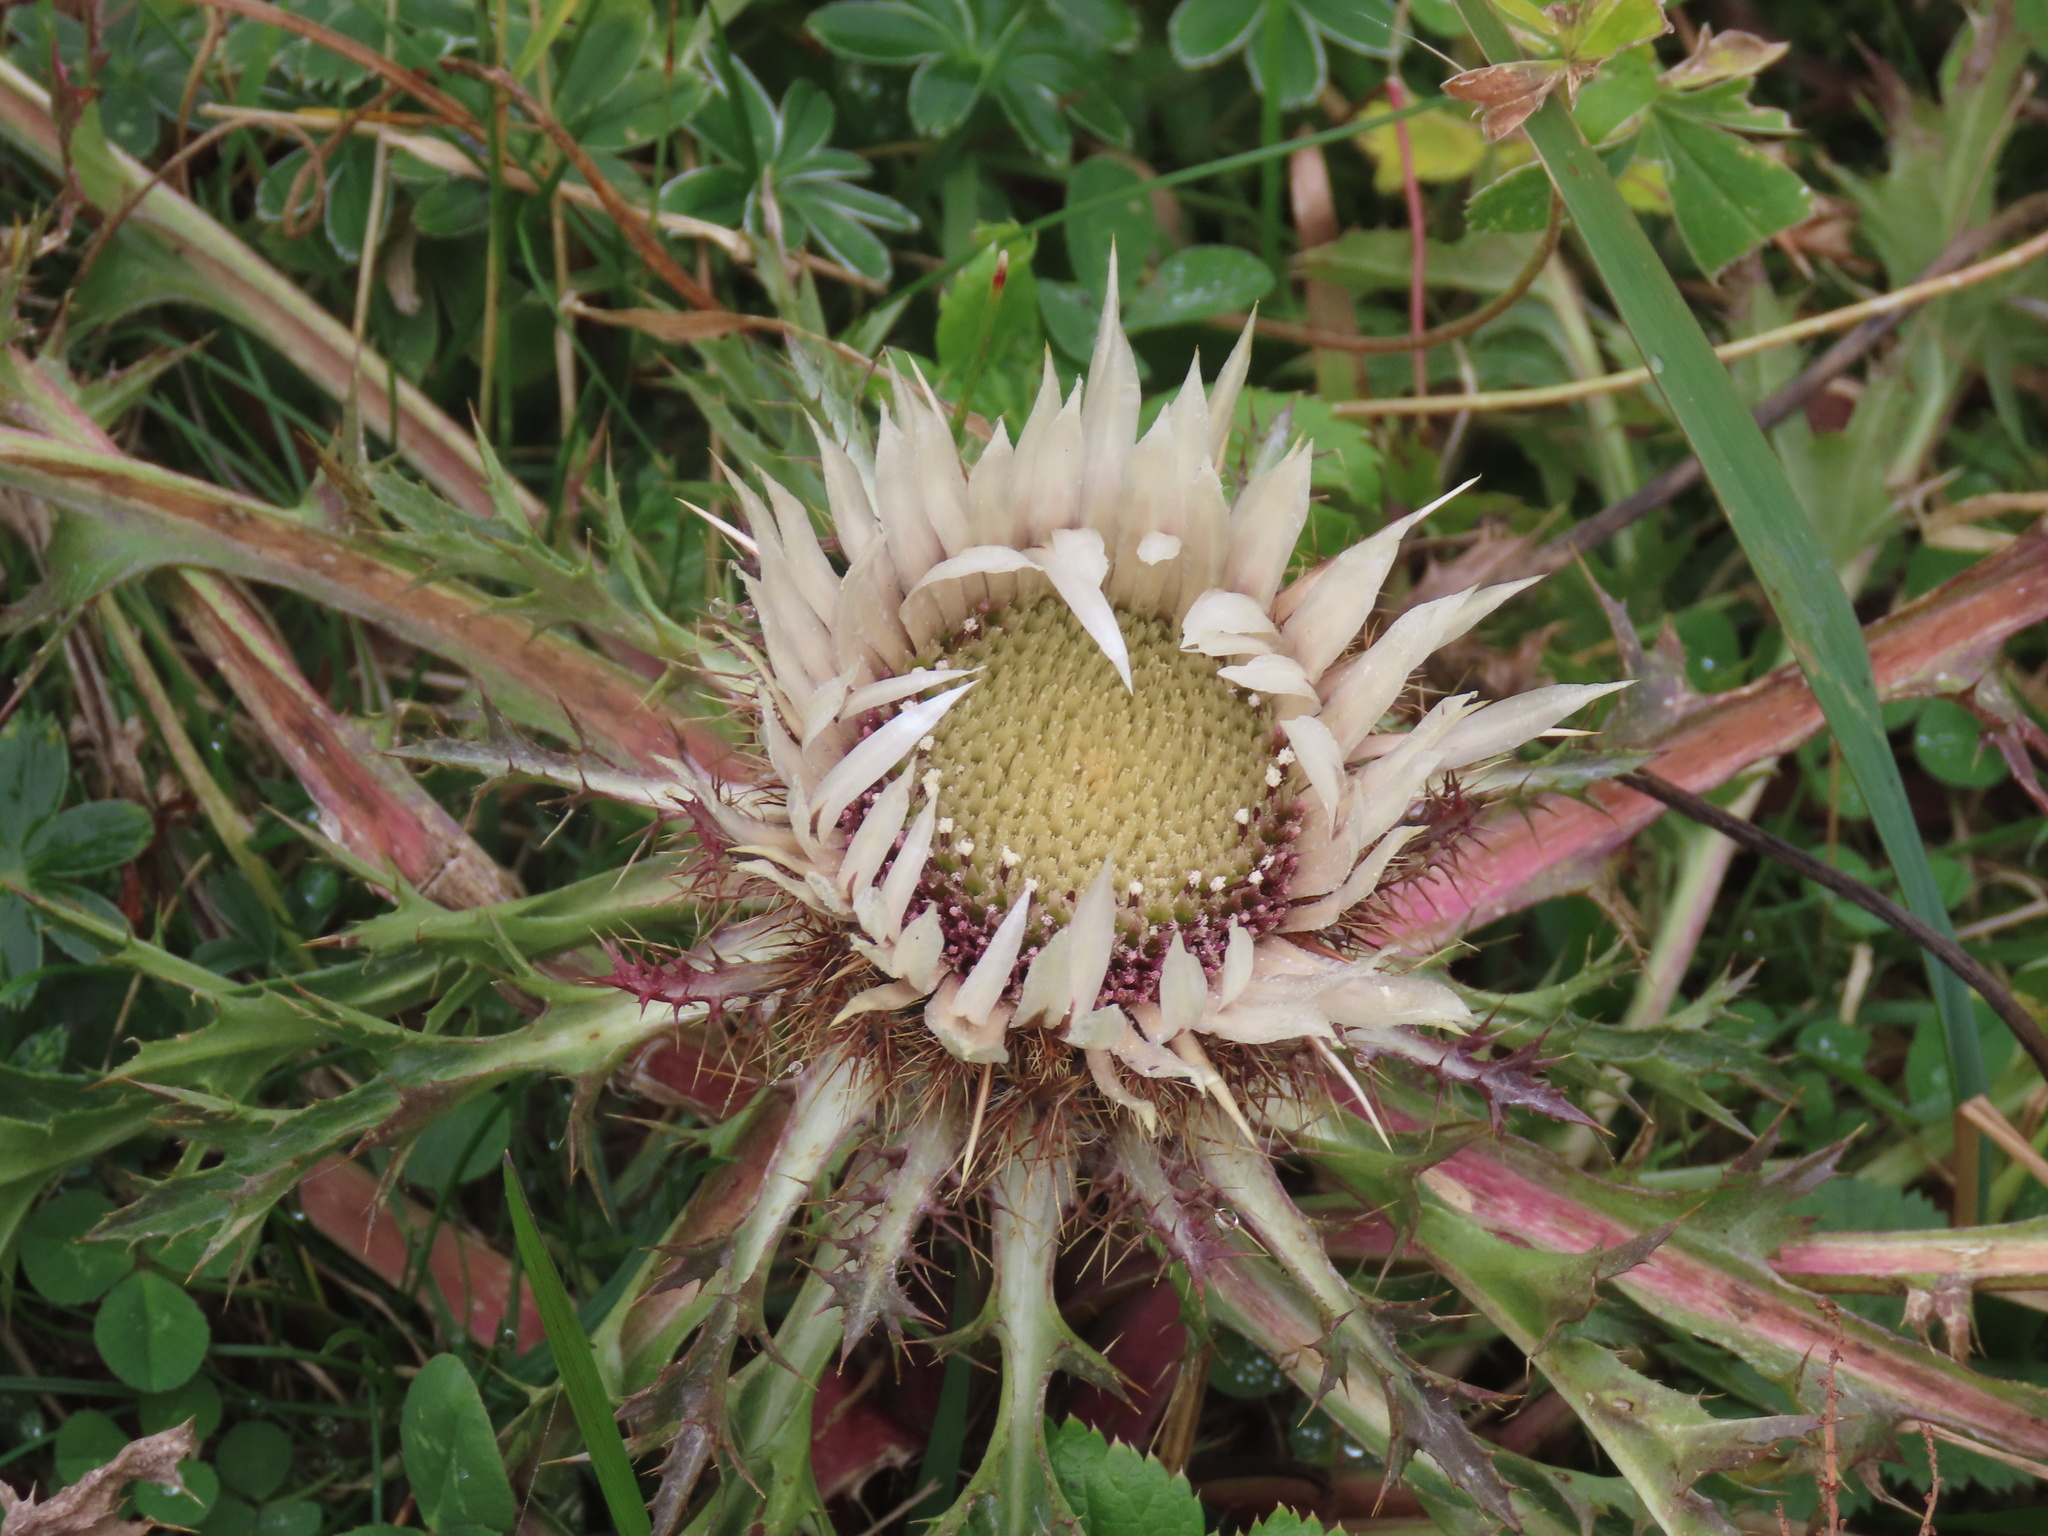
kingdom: Plantae
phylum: Tracheophyta
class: Magnoliopsida
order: Asterales
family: Asteraceae
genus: Carlina
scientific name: Carlina acaulis
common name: Stemless carline thistle
